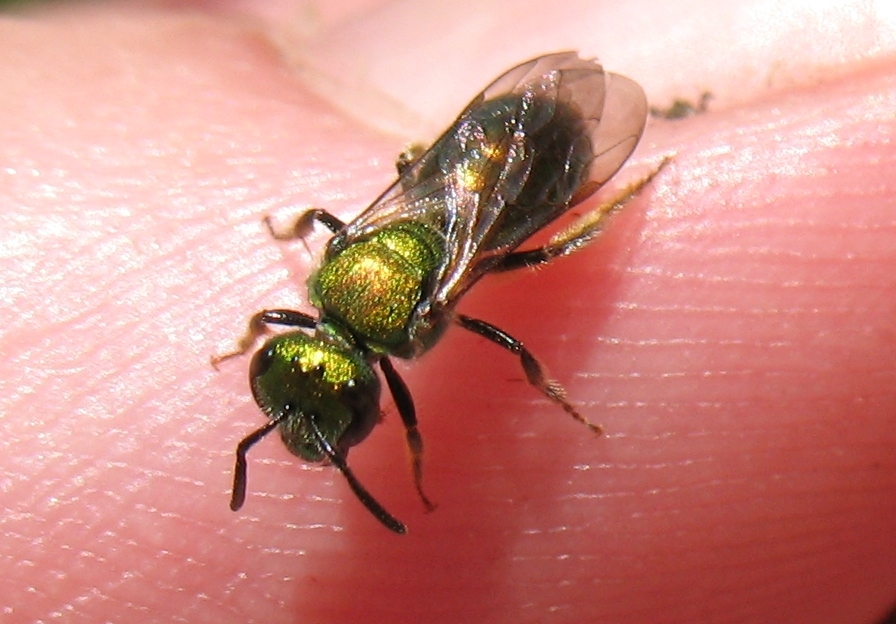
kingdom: Animalia
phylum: Arthropoda
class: Insecta
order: Hymenoptera
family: Halictidae
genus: Augochlora
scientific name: Augochlora pura
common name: Pure green sweat bee
